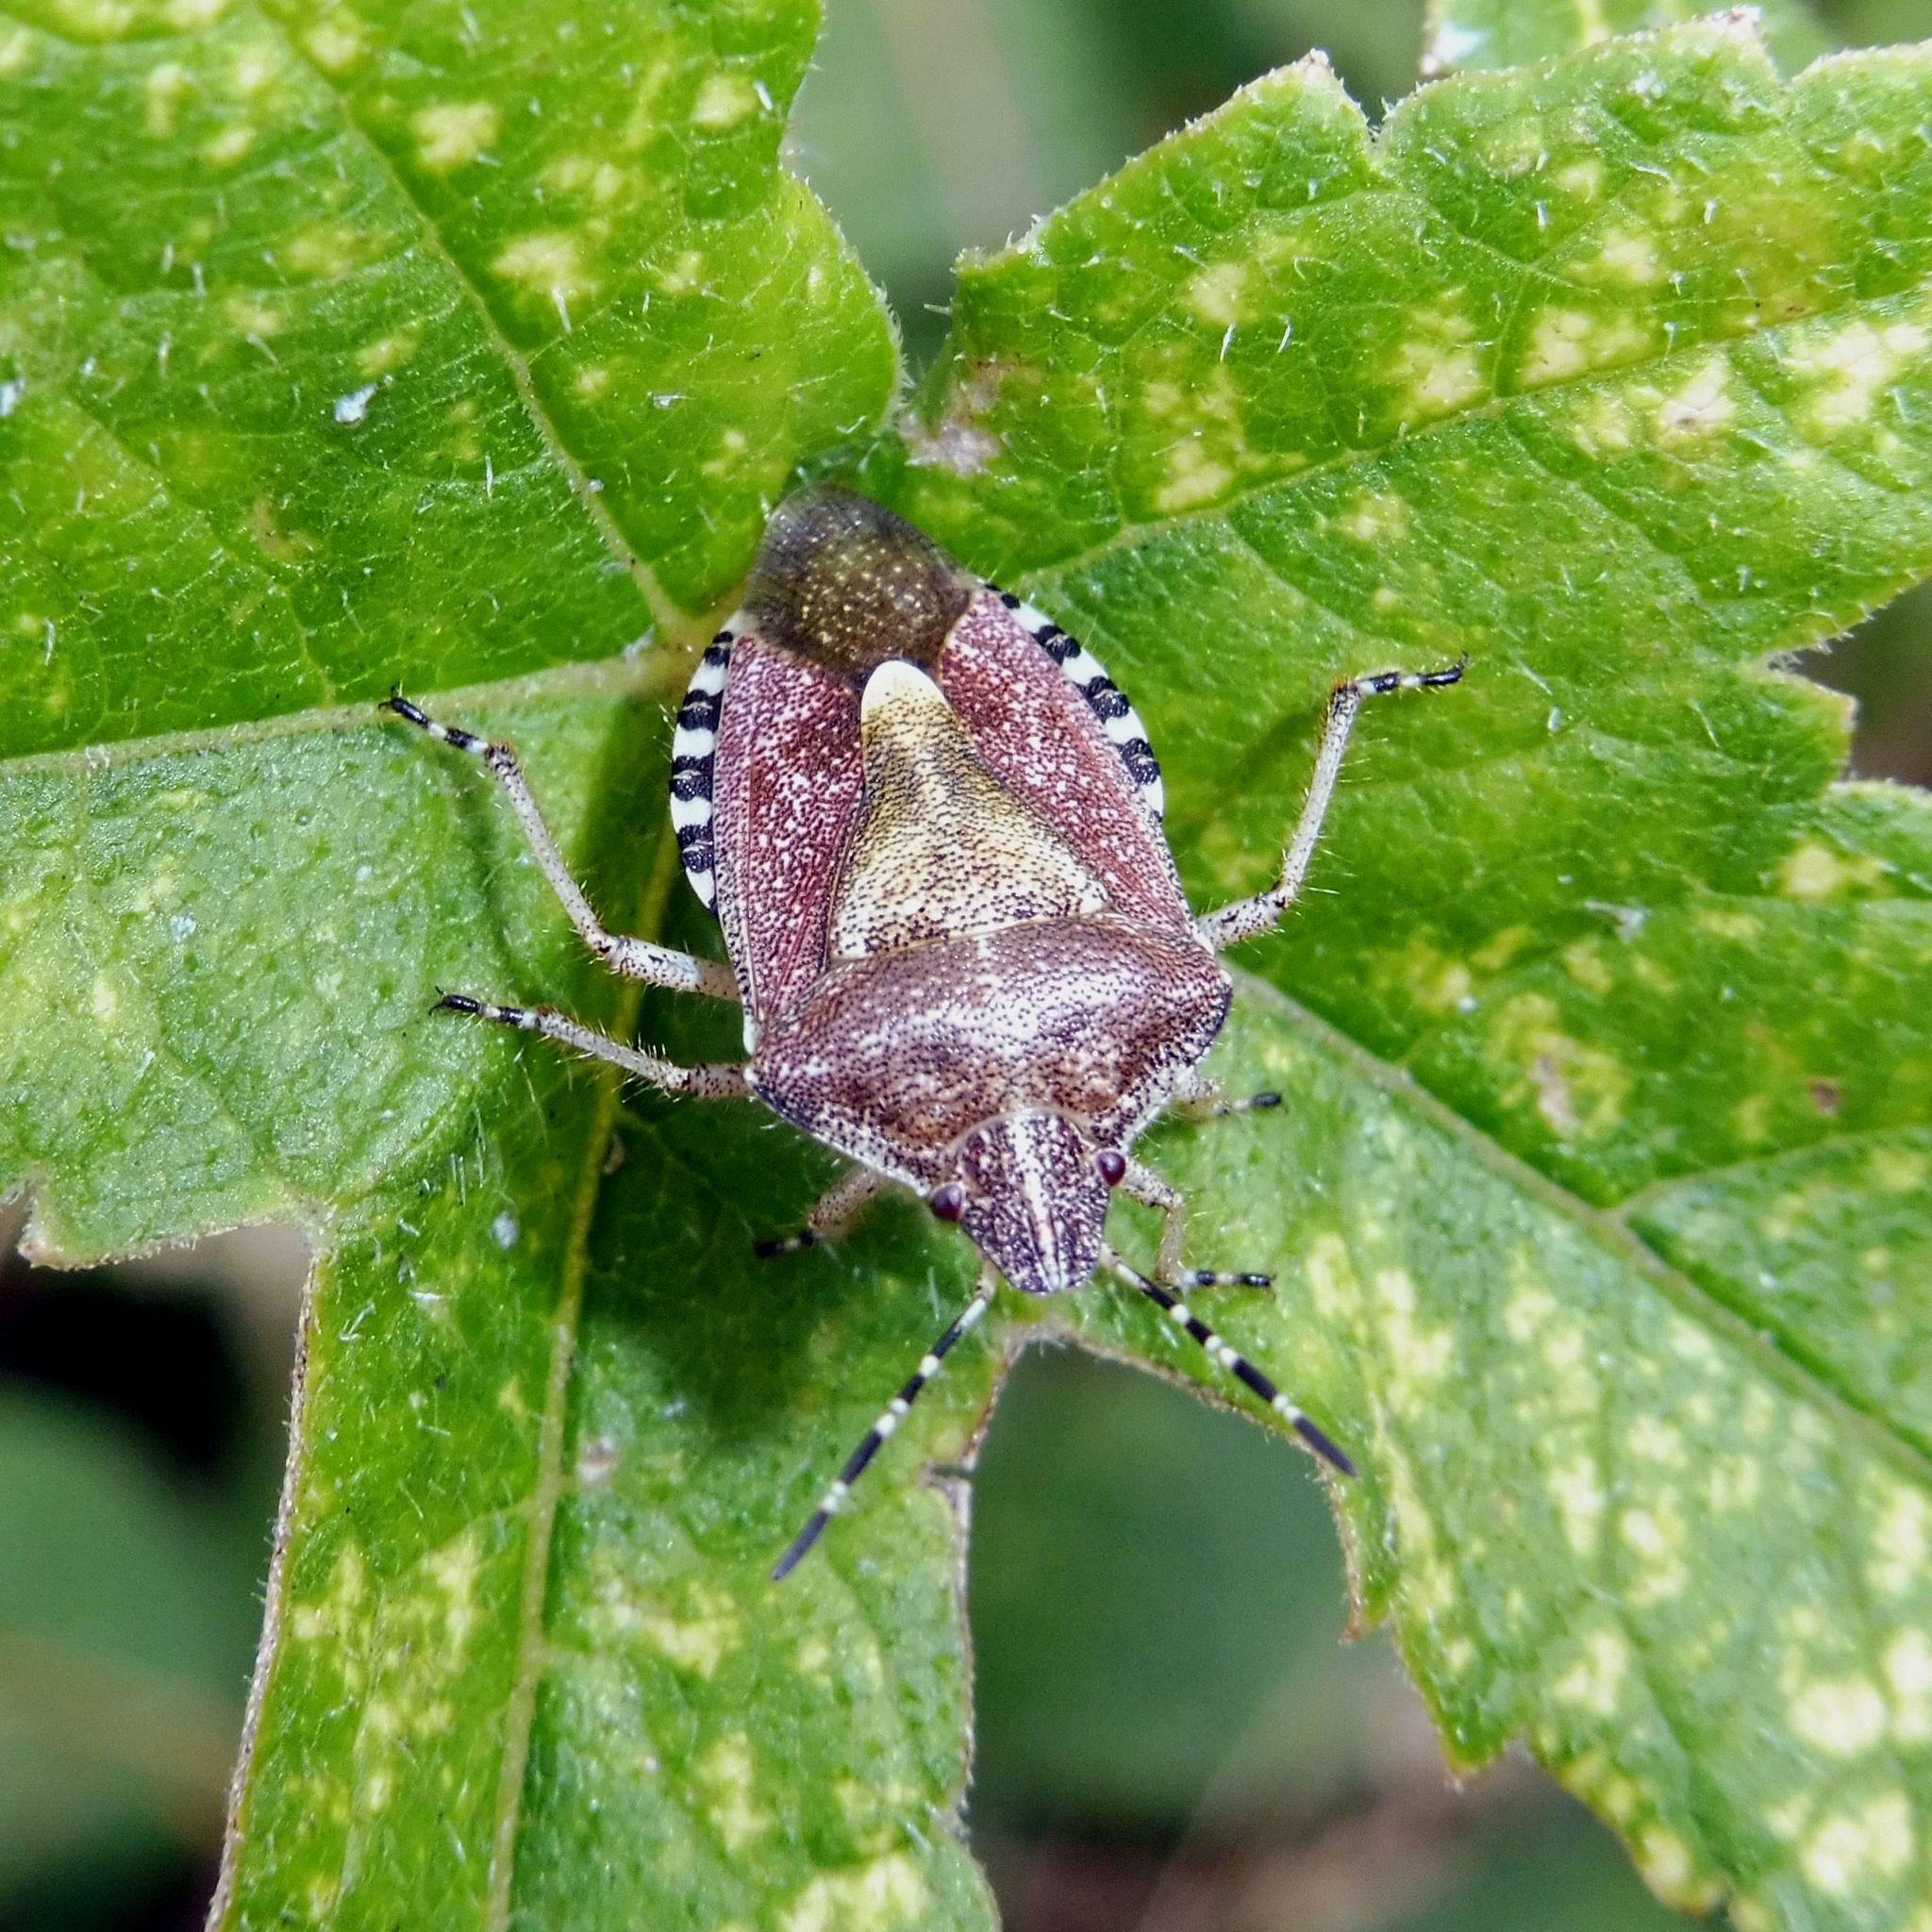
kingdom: Animalia
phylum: Arthropoda
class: Insecta
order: Hemiptera
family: Pentatomidae
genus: Dolycoris
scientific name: Dolycoris baccarum
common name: Sloe bug
